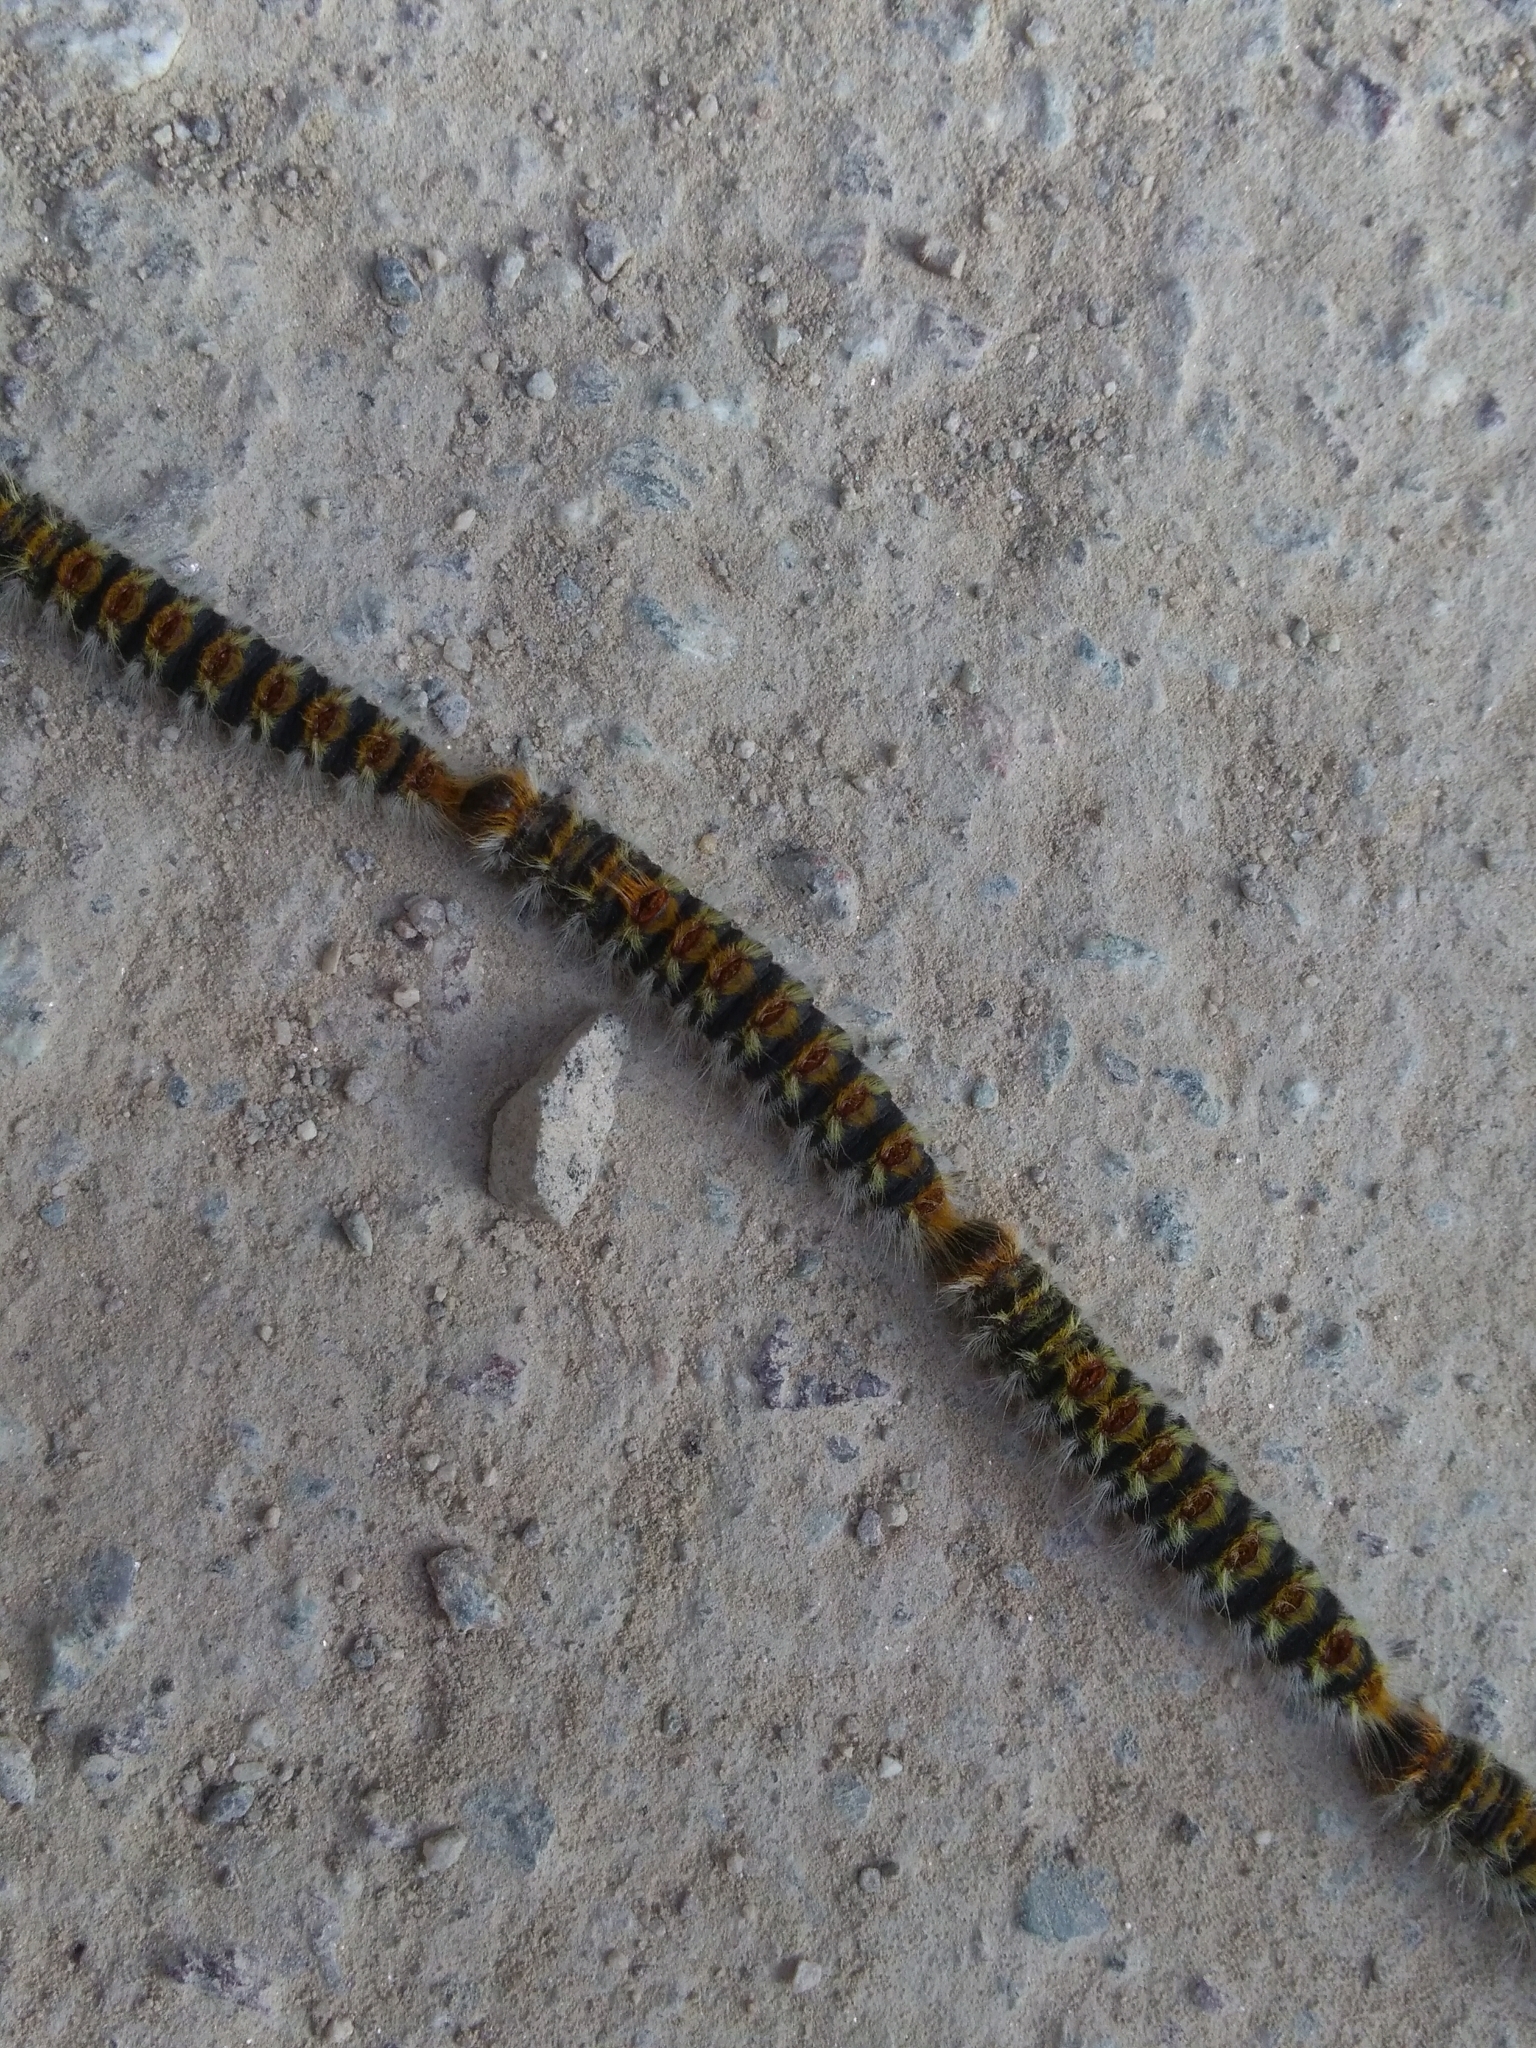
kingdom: Animalia
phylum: Arthropoda
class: Insecta
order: Lepidoptera
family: Notodontidae
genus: Thaumetopoea
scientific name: Thaumetopoea pityocampa
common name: Pine processionary
